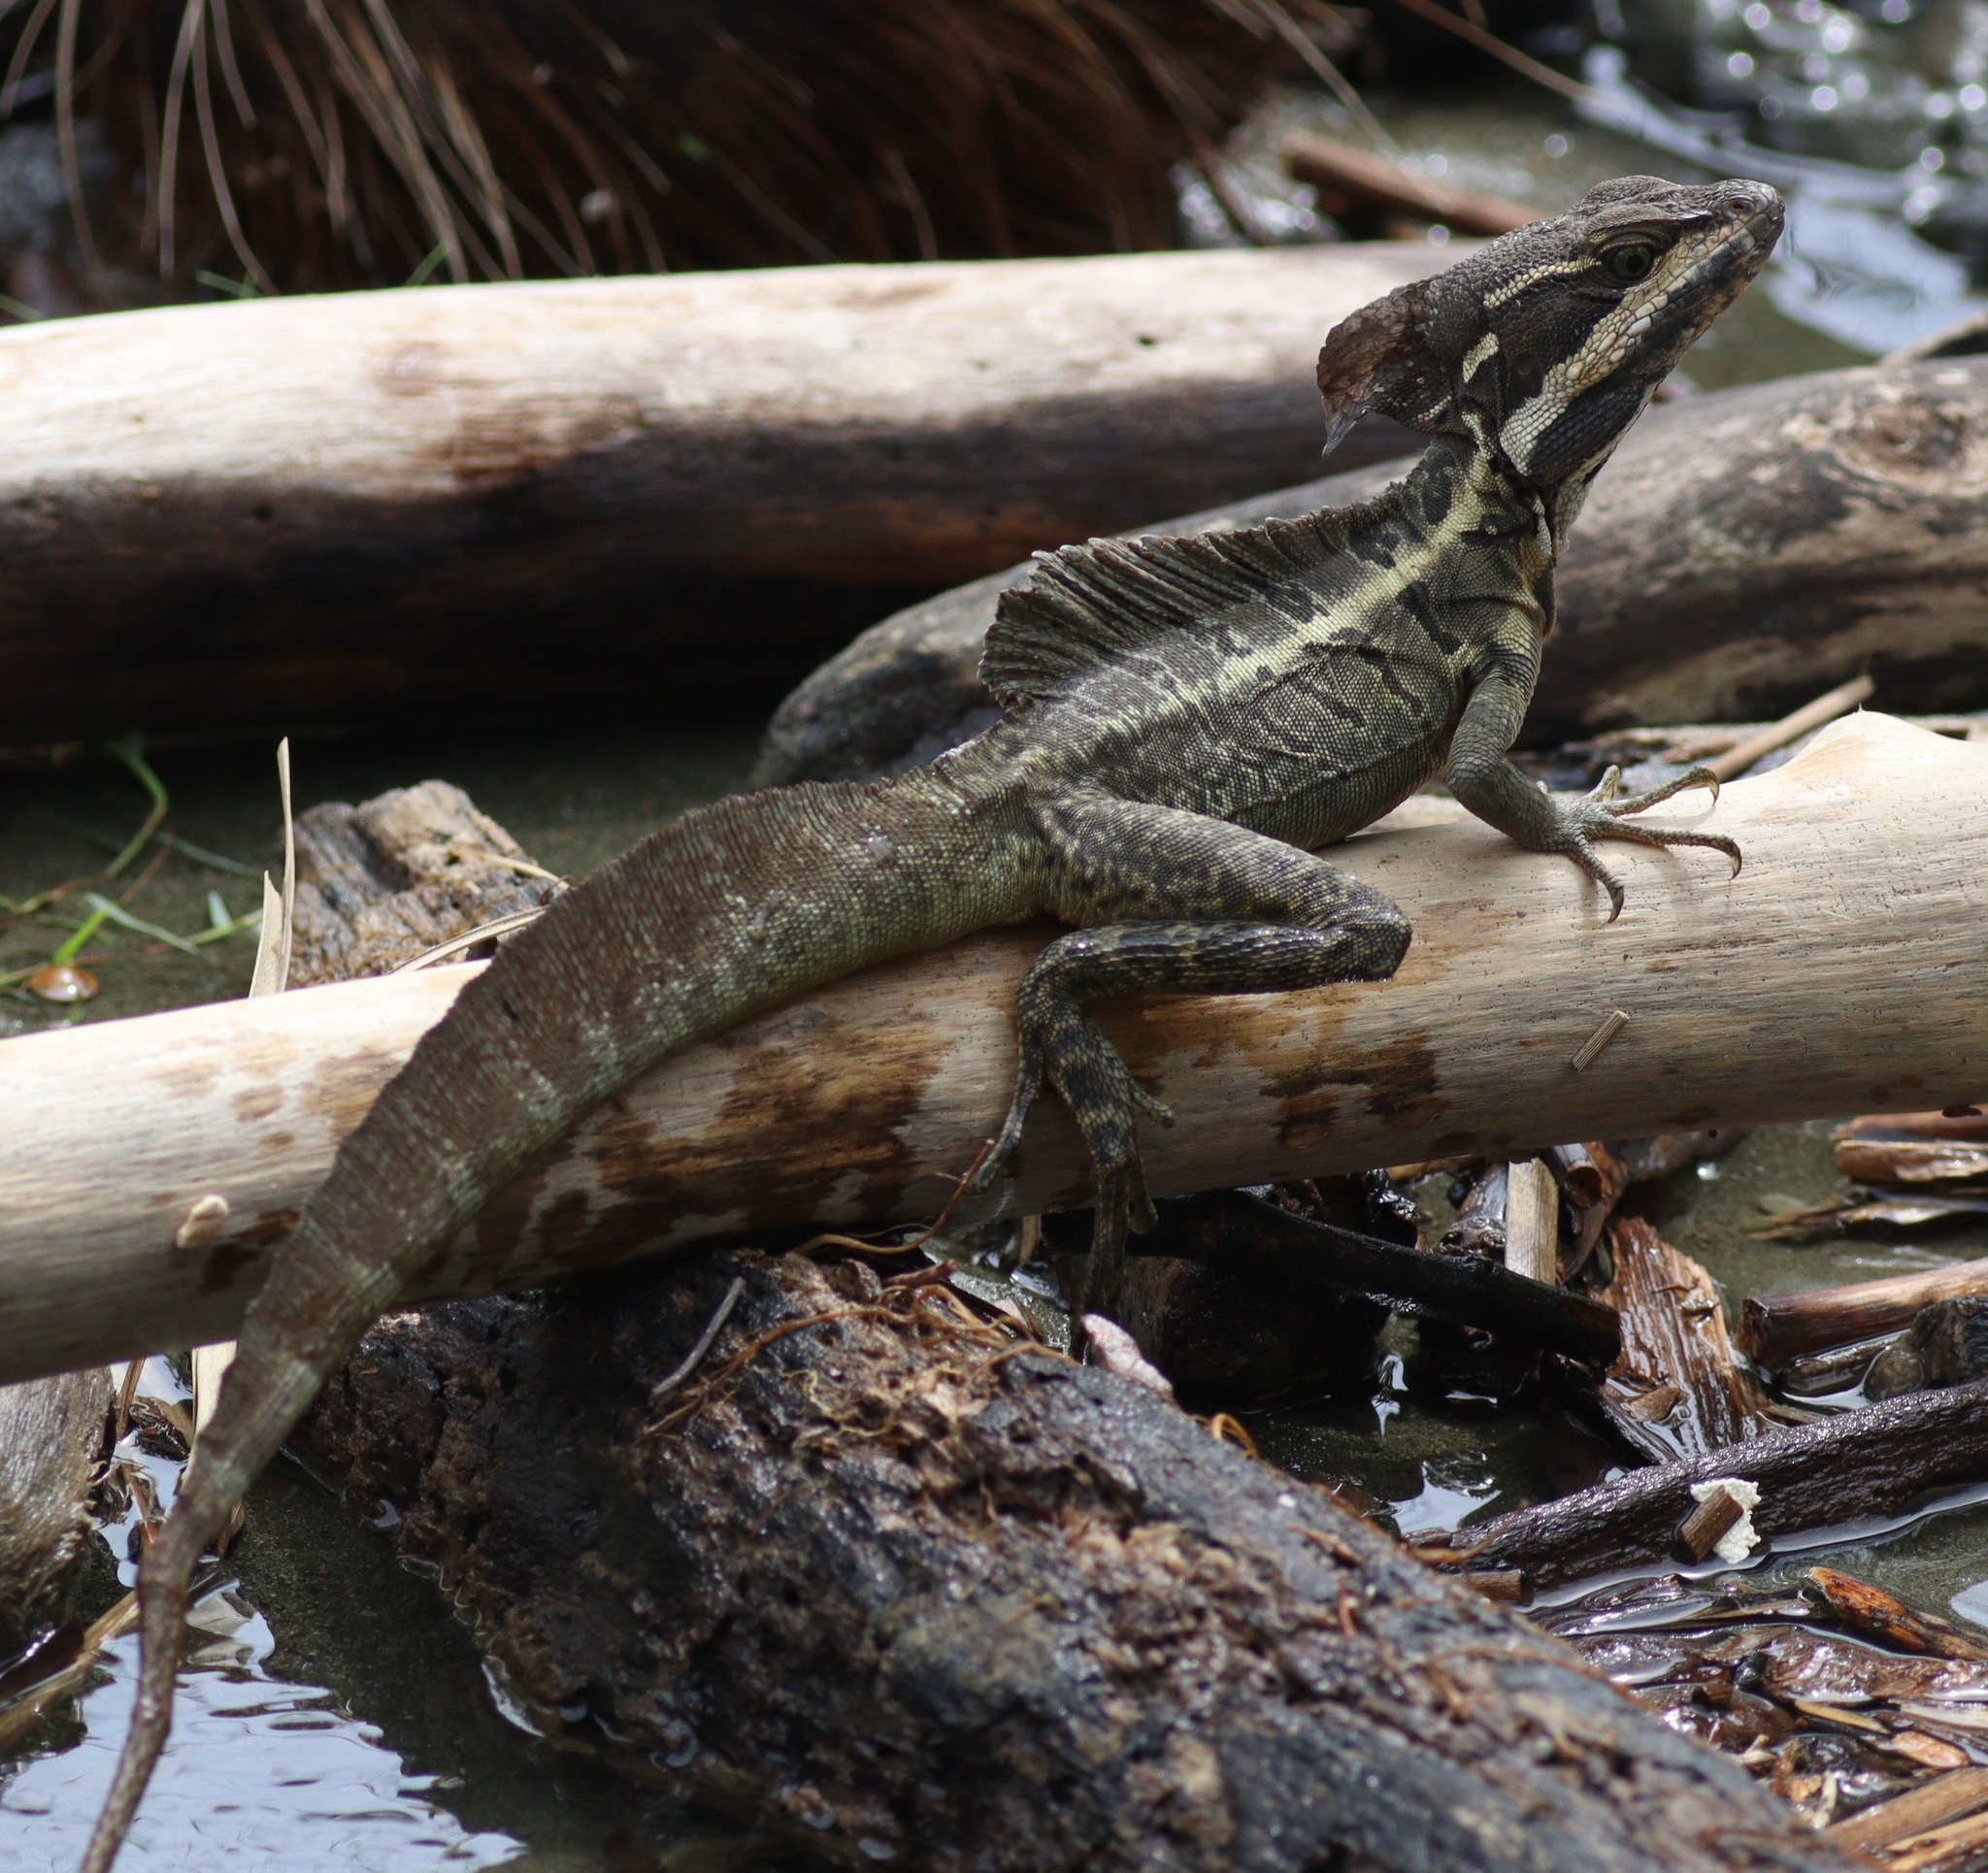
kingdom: Animalia
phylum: Chordata
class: Squamata
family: Corytophanidae
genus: Basiliscus
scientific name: Basiliscus basiliscus
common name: Common basilisk
